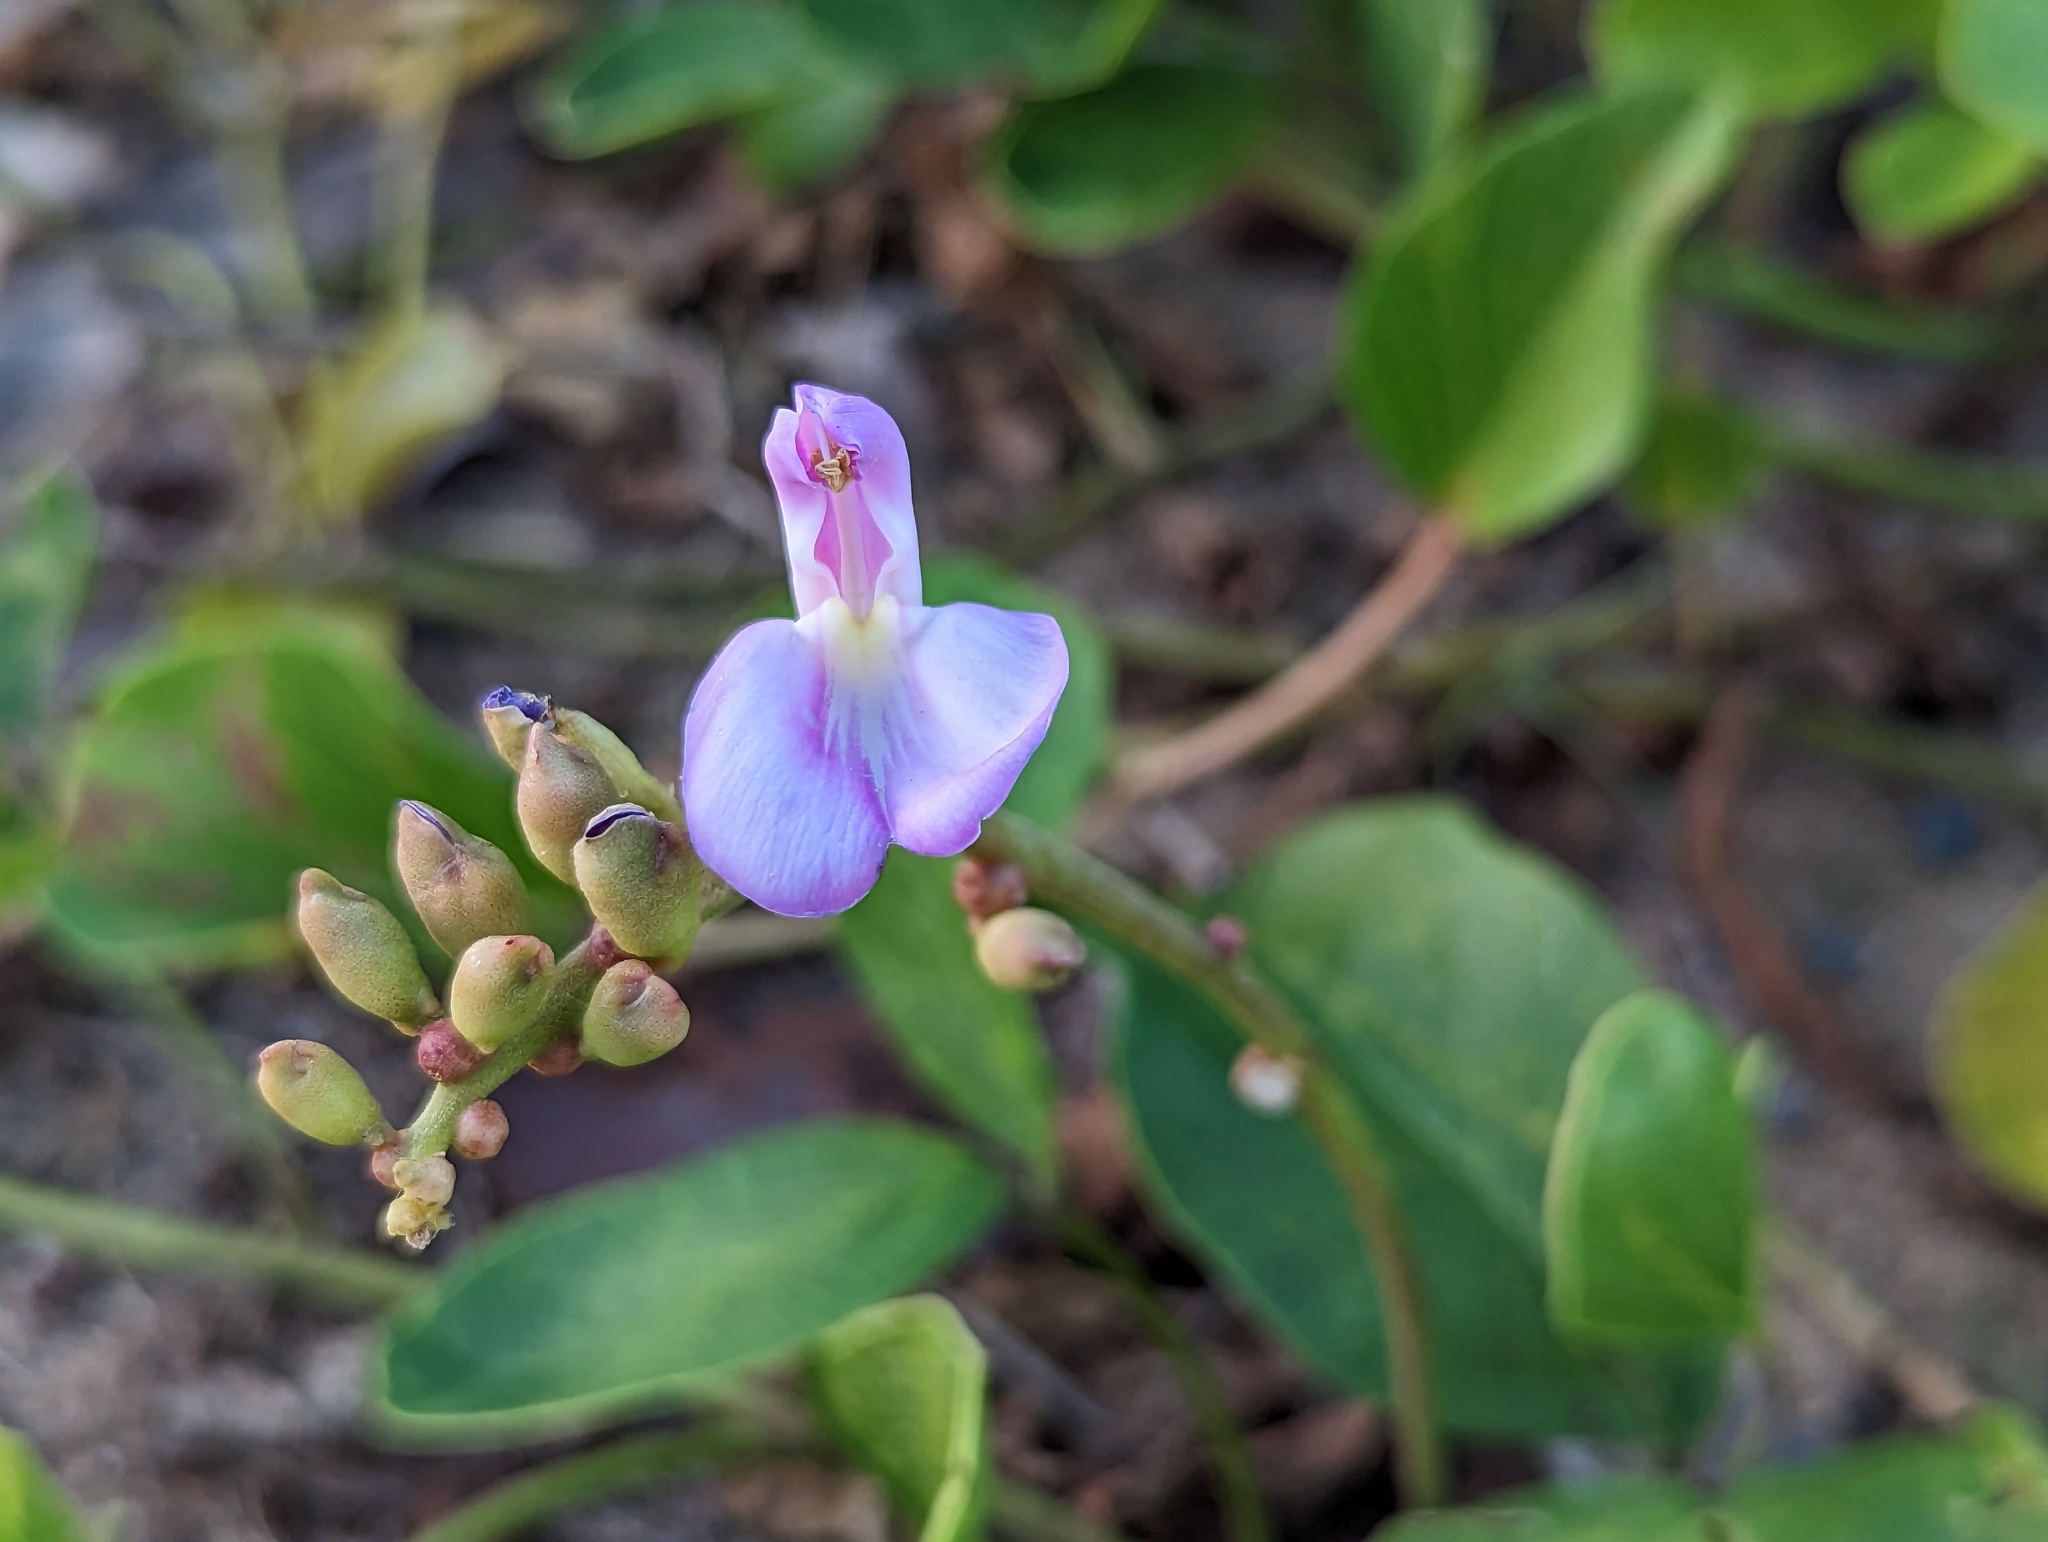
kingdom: Plantae
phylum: Tracheophyta
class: Magnoliopsida
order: Fabales
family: Fabaceae
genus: Canavalia
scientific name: Canavalia rosea
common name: Beach-bean
